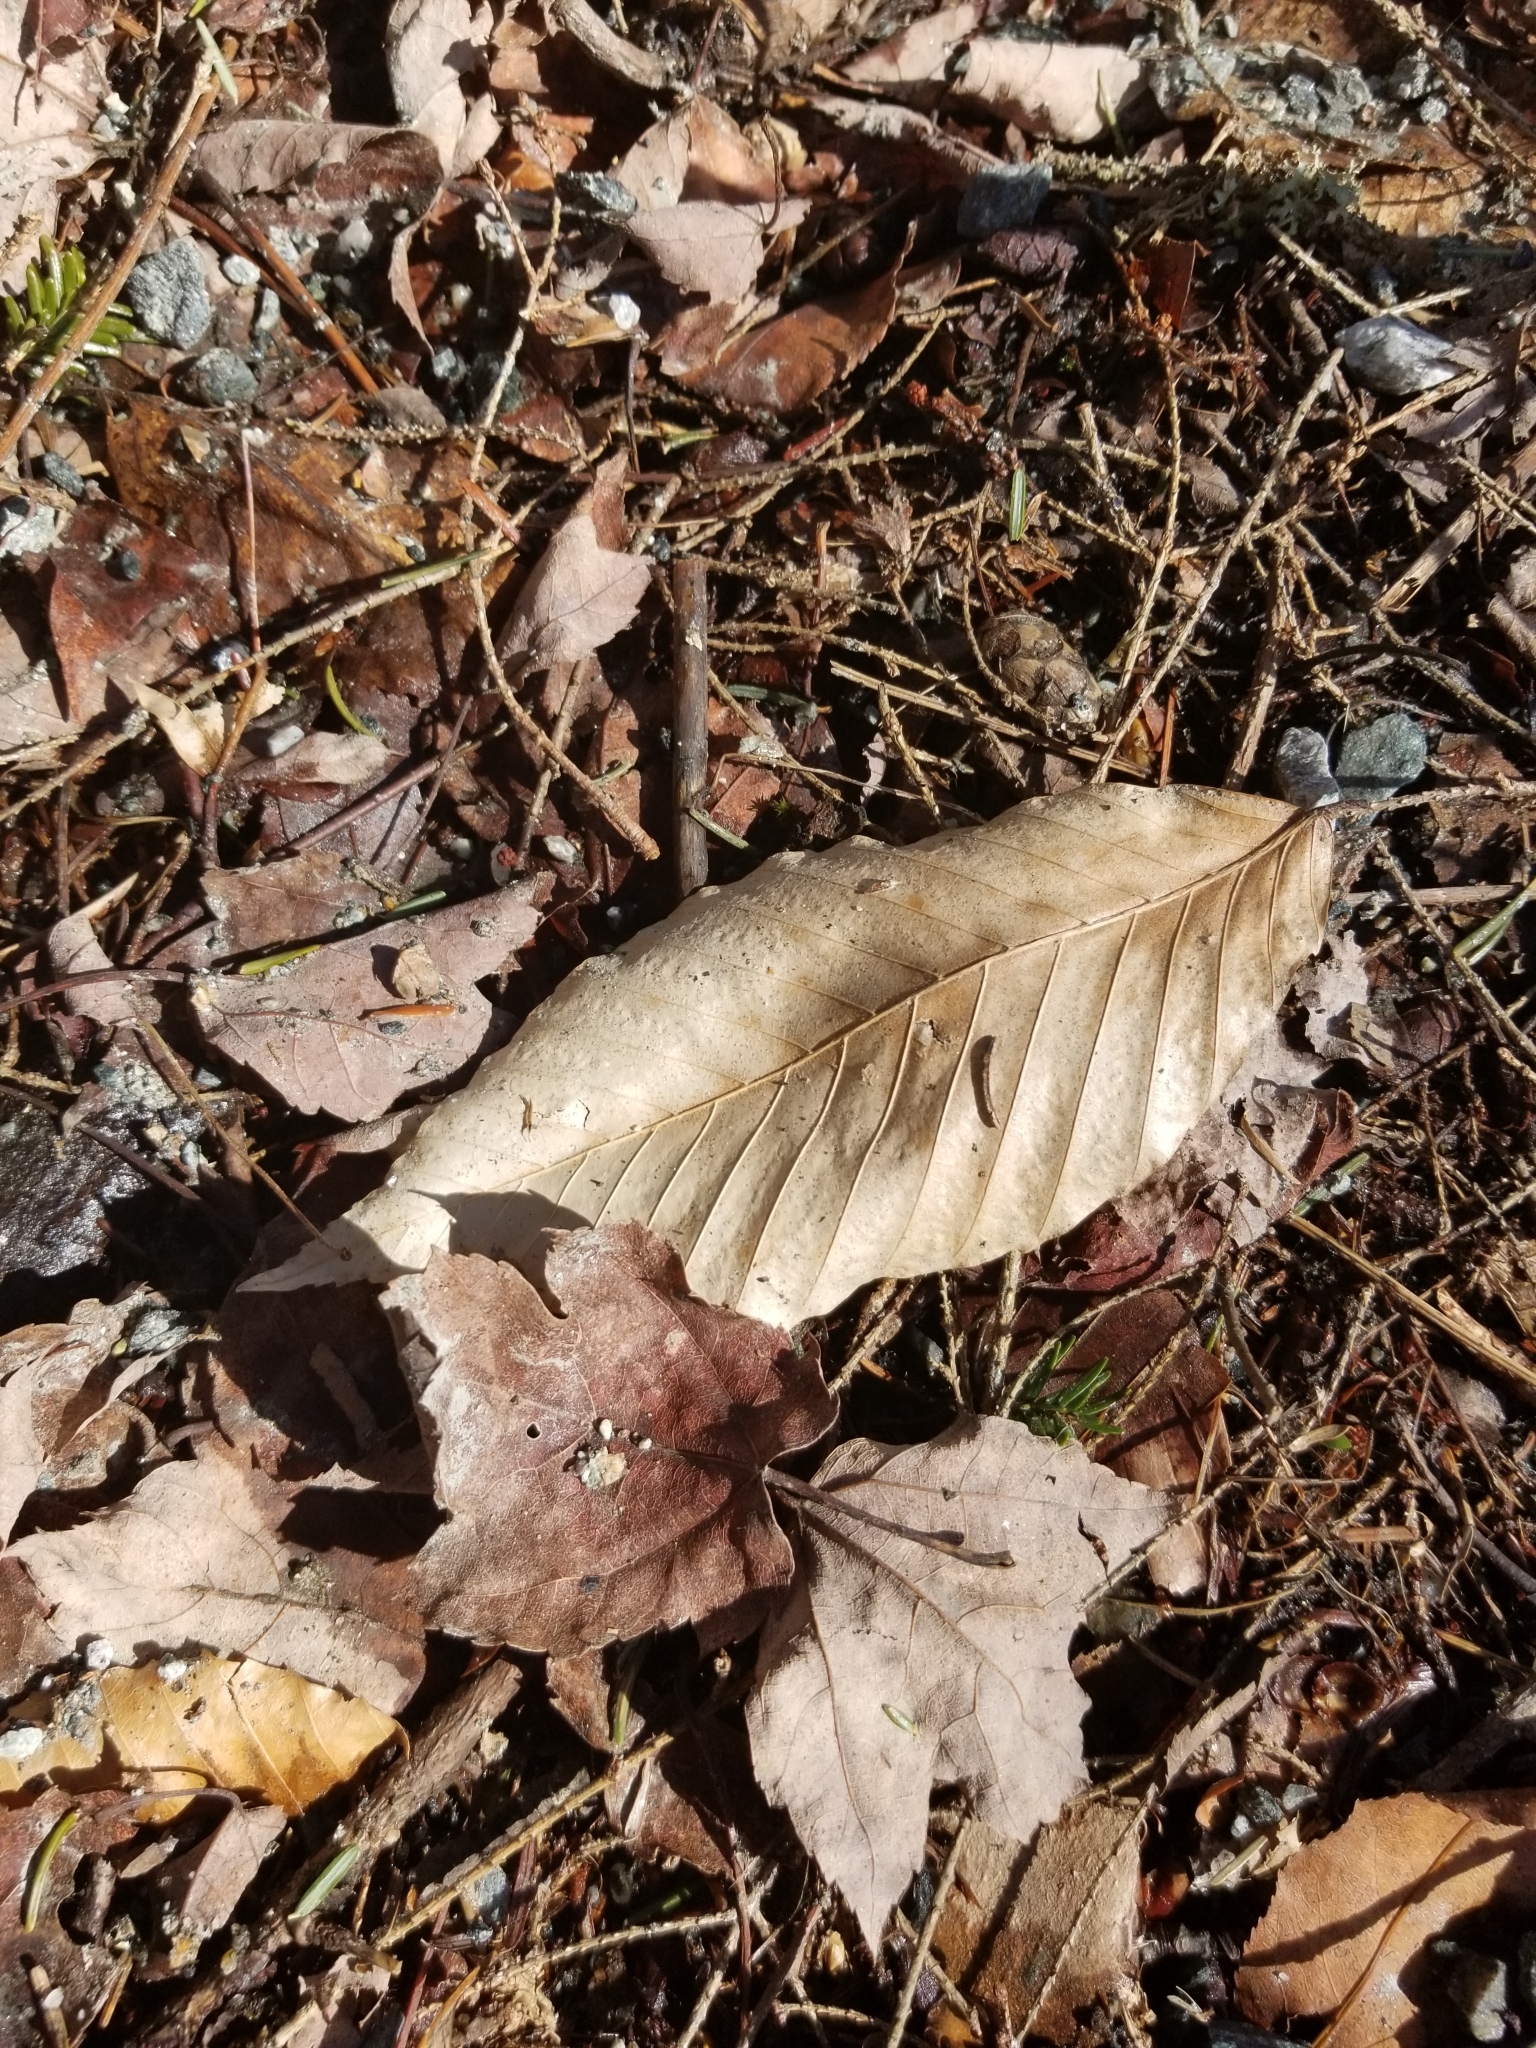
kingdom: Plantae
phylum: Tracheophyta
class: Magnoliopsida
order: Fagales
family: Fagaceae
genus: Fagus
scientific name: Fagus grandifolia
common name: American beech
